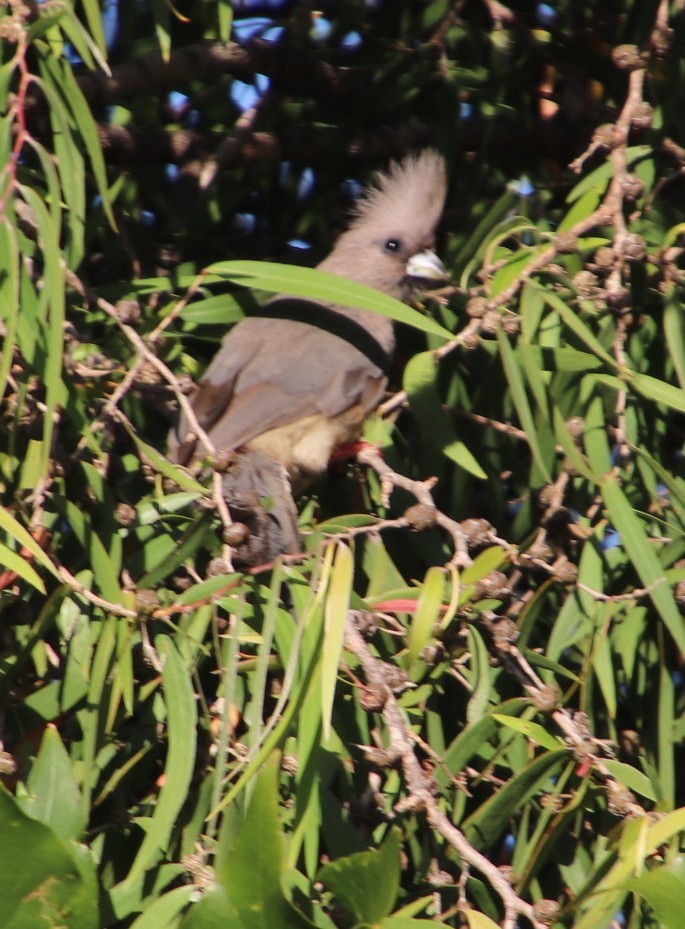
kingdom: Animalia
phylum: Chordata
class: Aves
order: Coliiformes
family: Coliidae
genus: Colius
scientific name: Colius striatus
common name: Speckled mousebird
